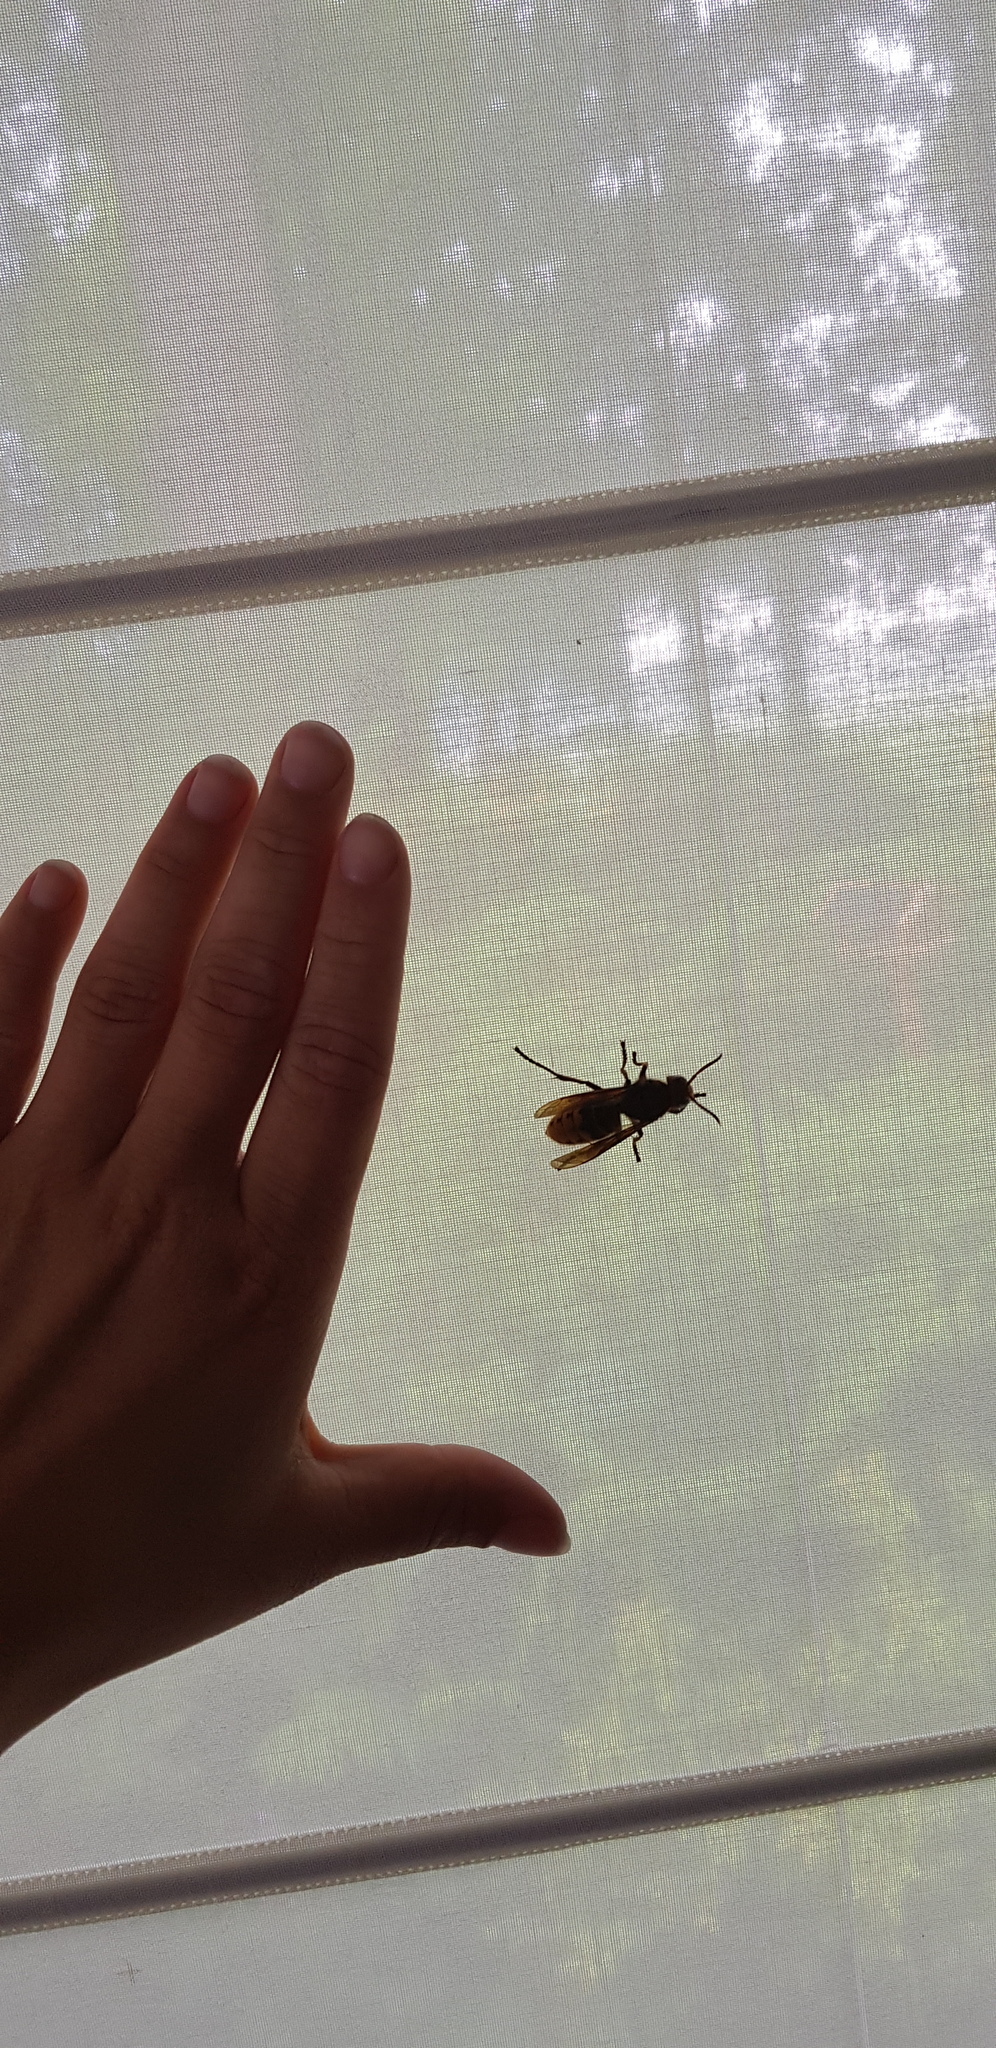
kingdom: Animalia
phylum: Arthropoda
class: Insecta
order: Hymenoptera
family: Vespidae
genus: Vespa
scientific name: Vespa crabro
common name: Hornet
